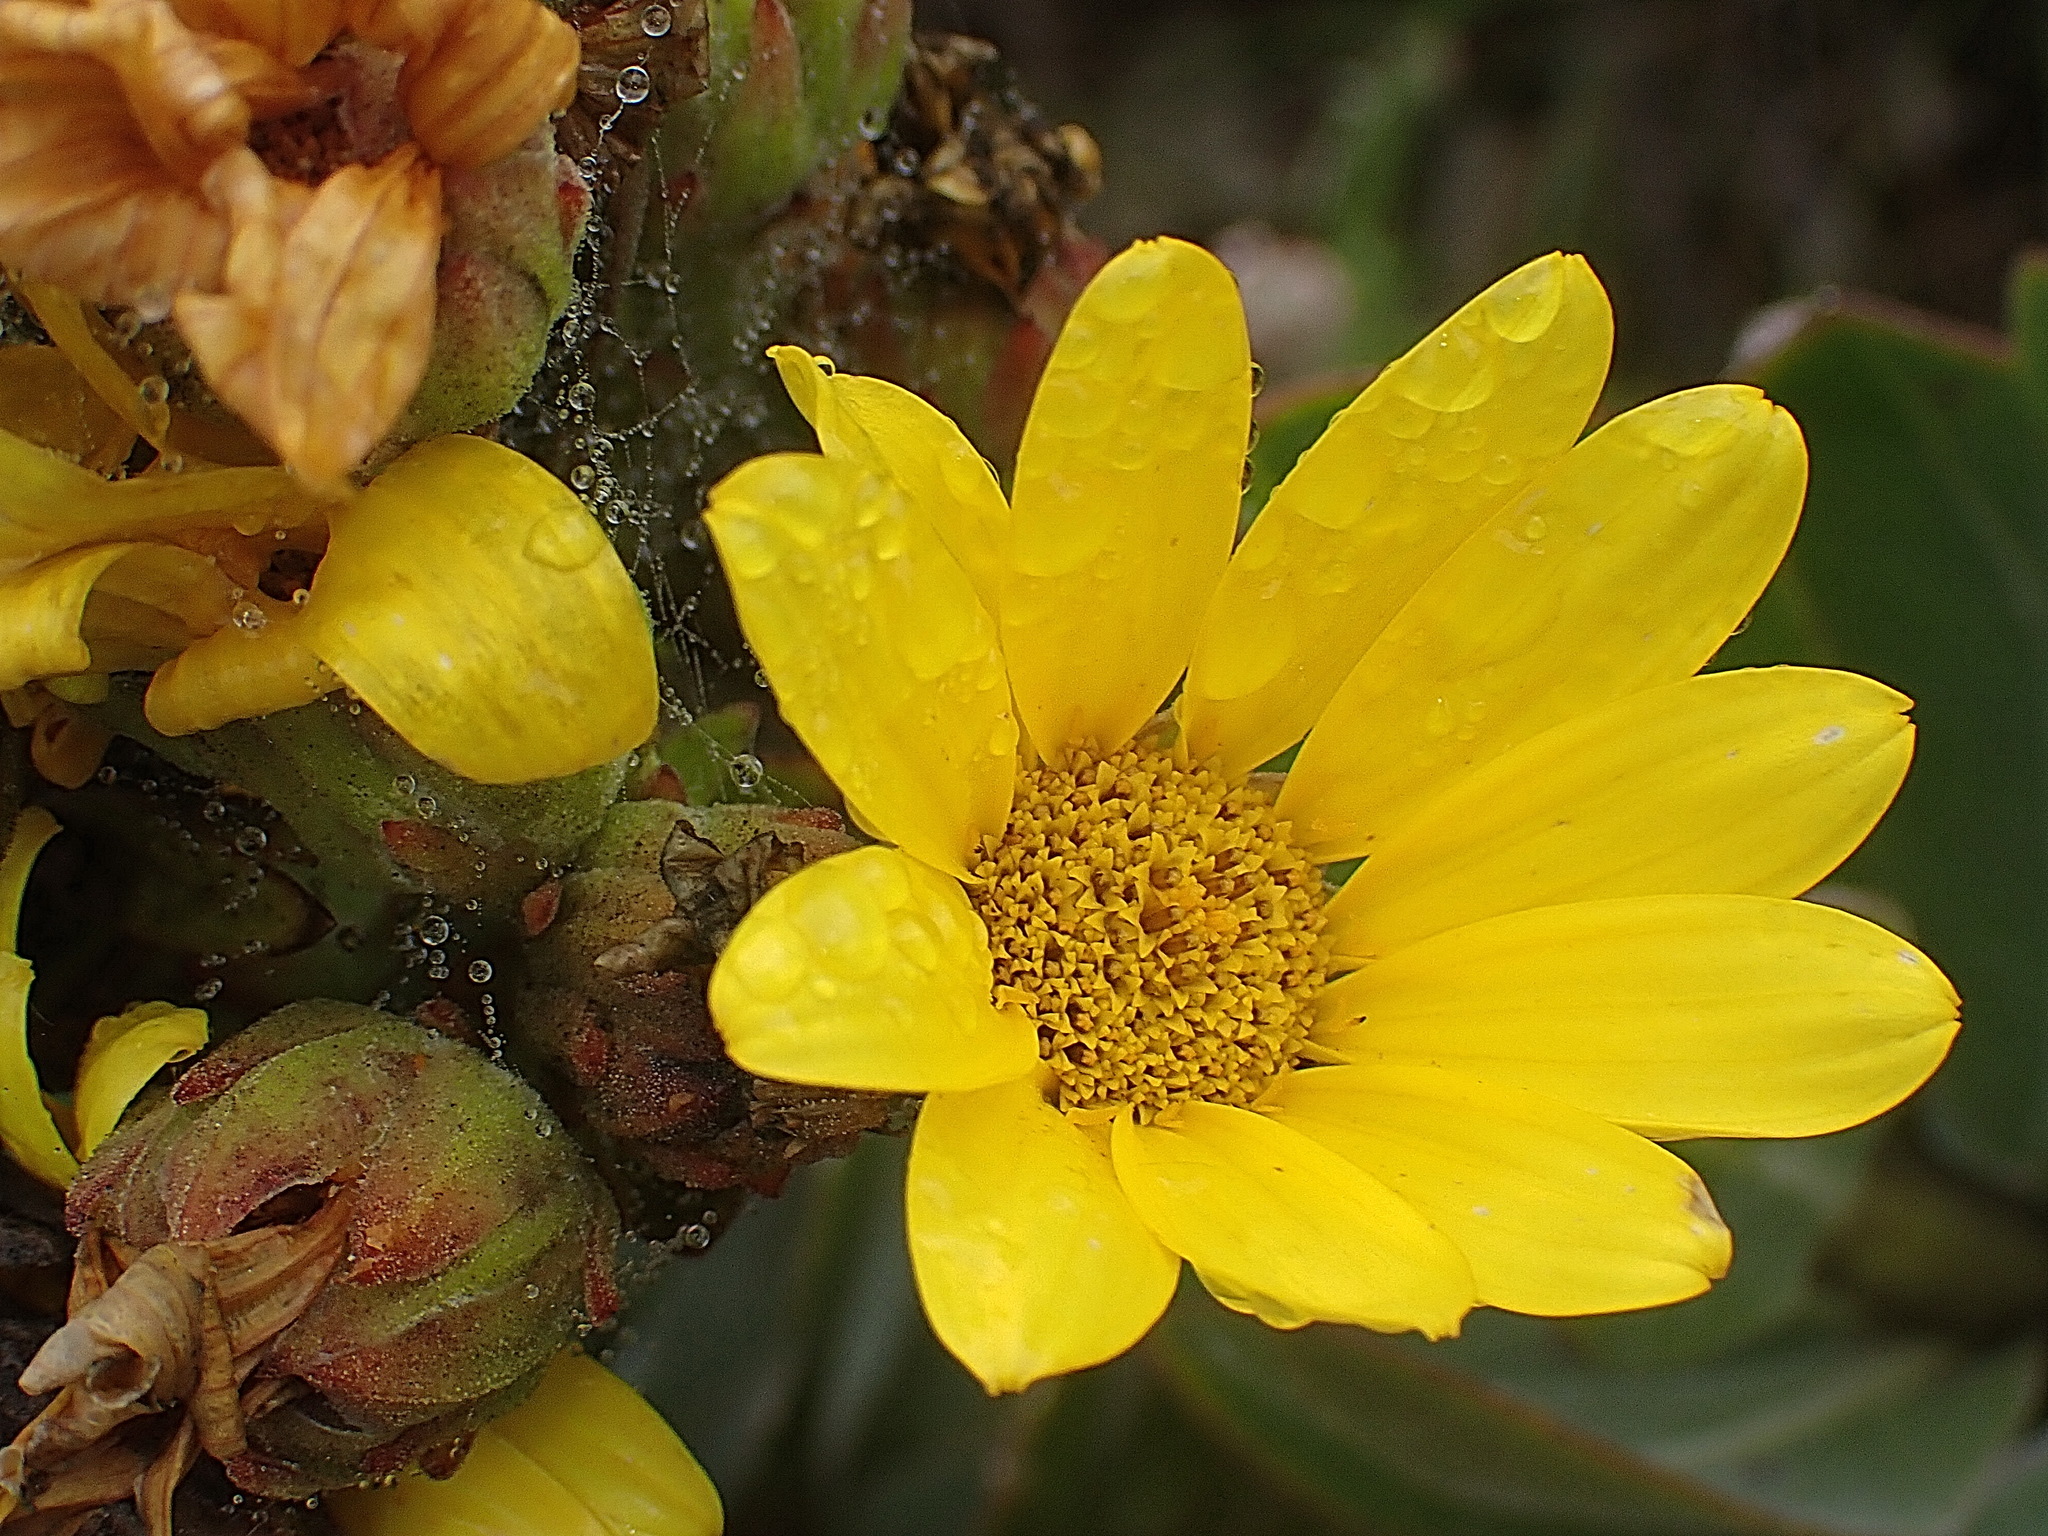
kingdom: Plantae
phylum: Tracheophyta
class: Magnoliopsida
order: Asterales
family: Asteraceae
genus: Osteospermum
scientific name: Osteospermum
